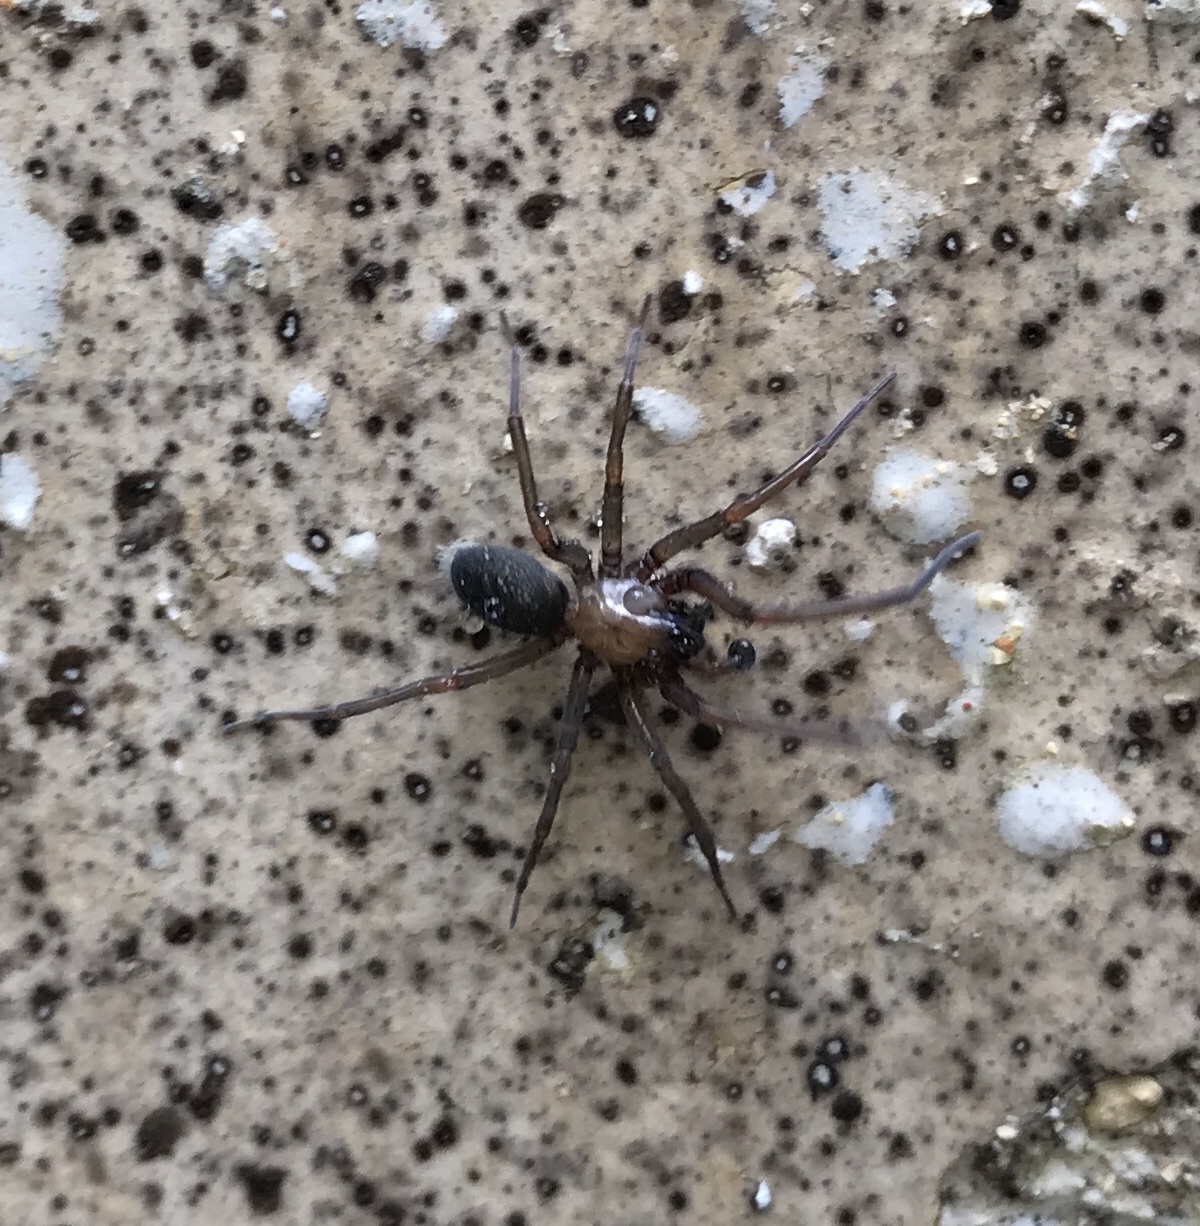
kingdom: Animalia
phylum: Arthropoda
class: Arachnida
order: Araneae
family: Desidae
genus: Metaltella
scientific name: Metaltella simoni
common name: Cribellate spider
